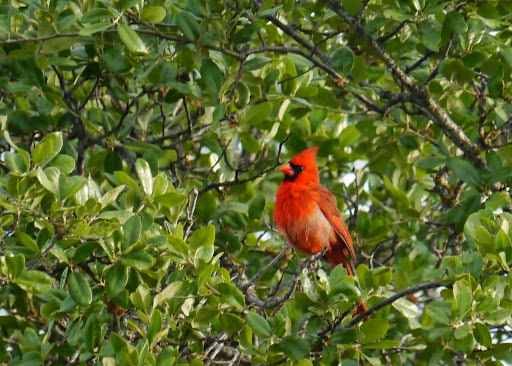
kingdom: Animalia
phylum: Chordata
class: Aves
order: Passeriformes
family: Cardinalidae
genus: Cardinalis
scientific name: Cardinalis cardinalis
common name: Northern cardinal
